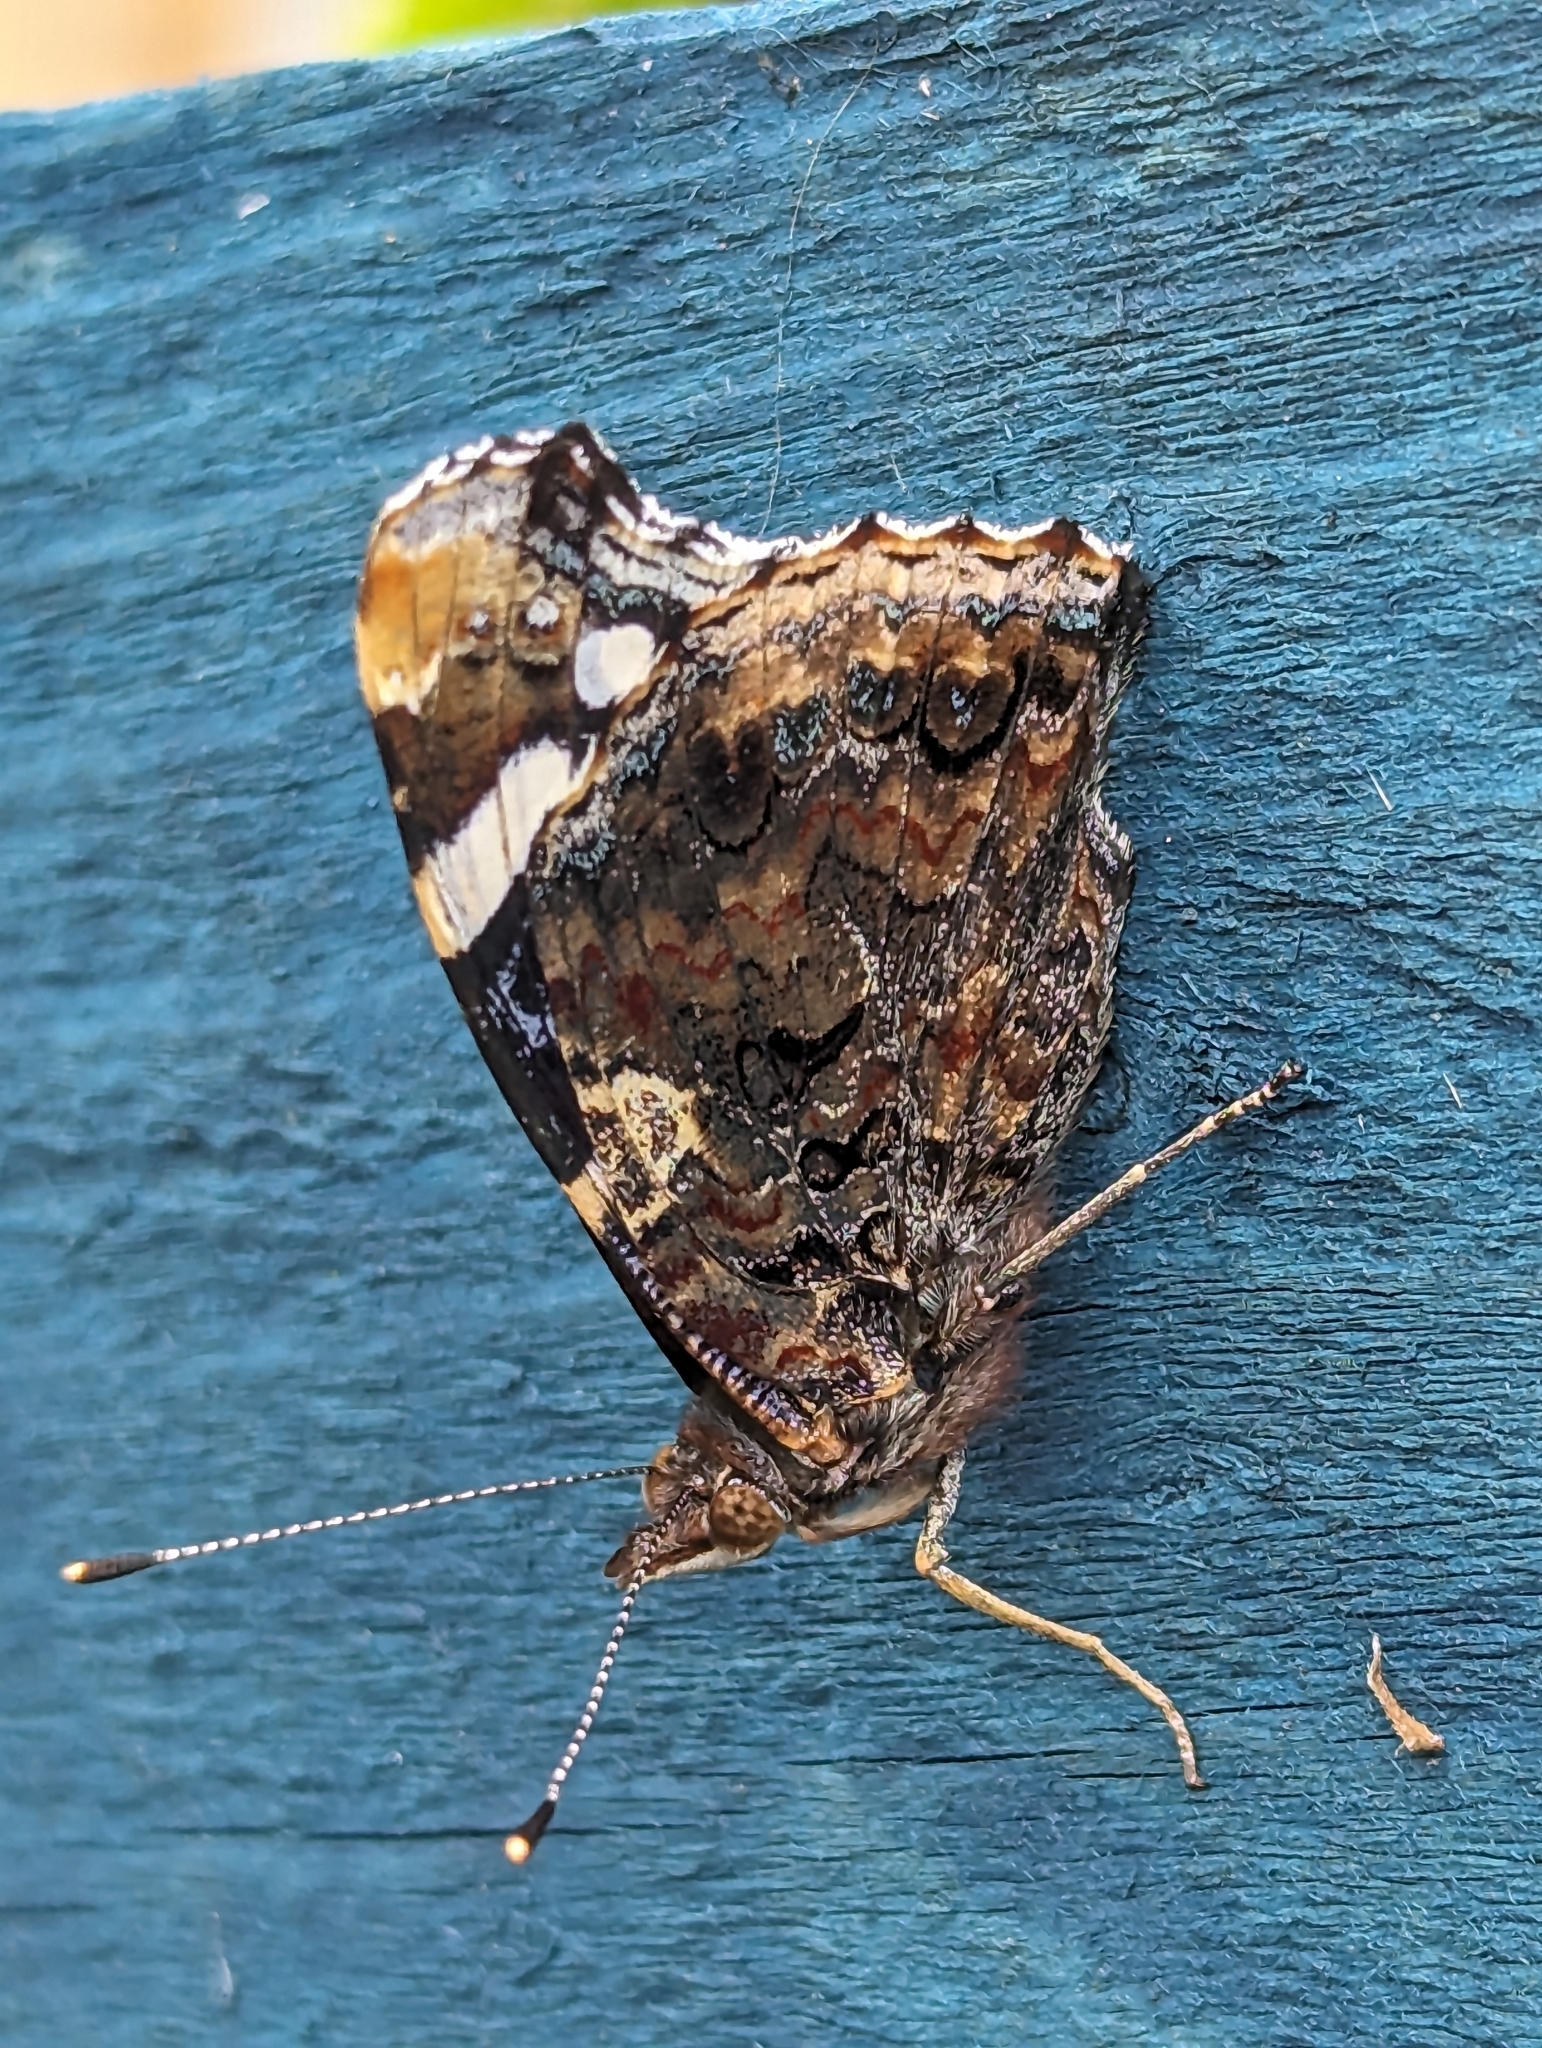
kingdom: Animalia
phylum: Arthropoda
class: Insecta
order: Lepidoptera
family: Nymphalidae
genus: Vanessa
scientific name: Vanessa atalanta
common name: Red admiral
